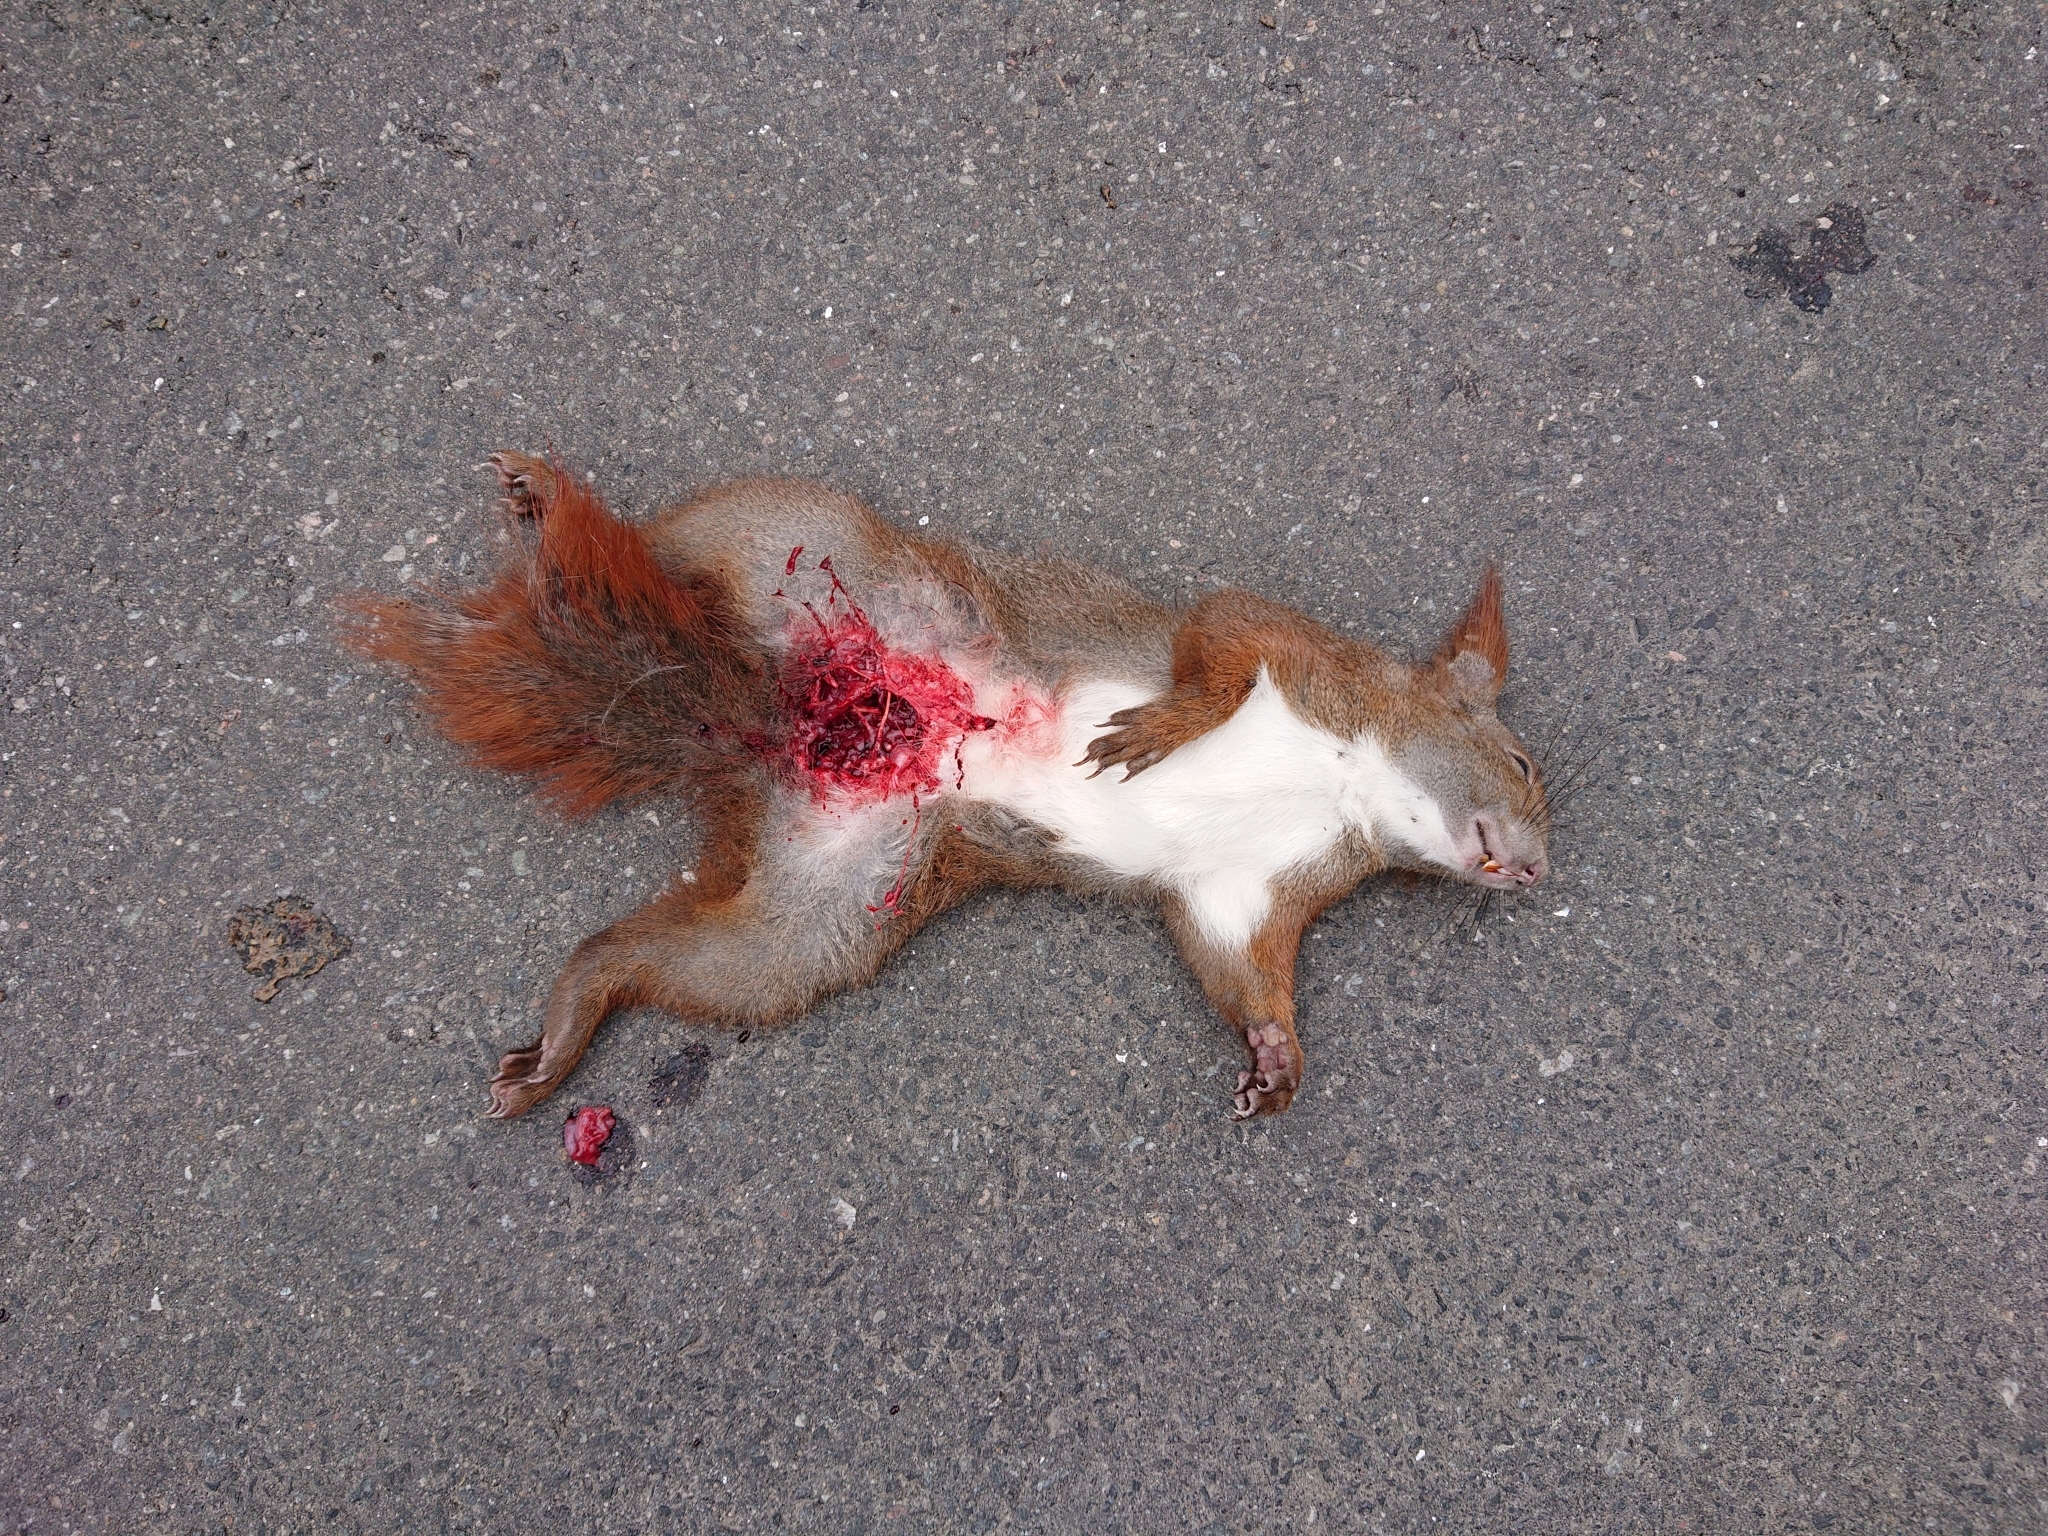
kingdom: Animalia
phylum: Chordata
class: Mammalia
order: Rodentia
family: Sciuridae
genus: Sciurus
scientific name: Sciurus vulgaris
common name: Eurasian red squirrel
